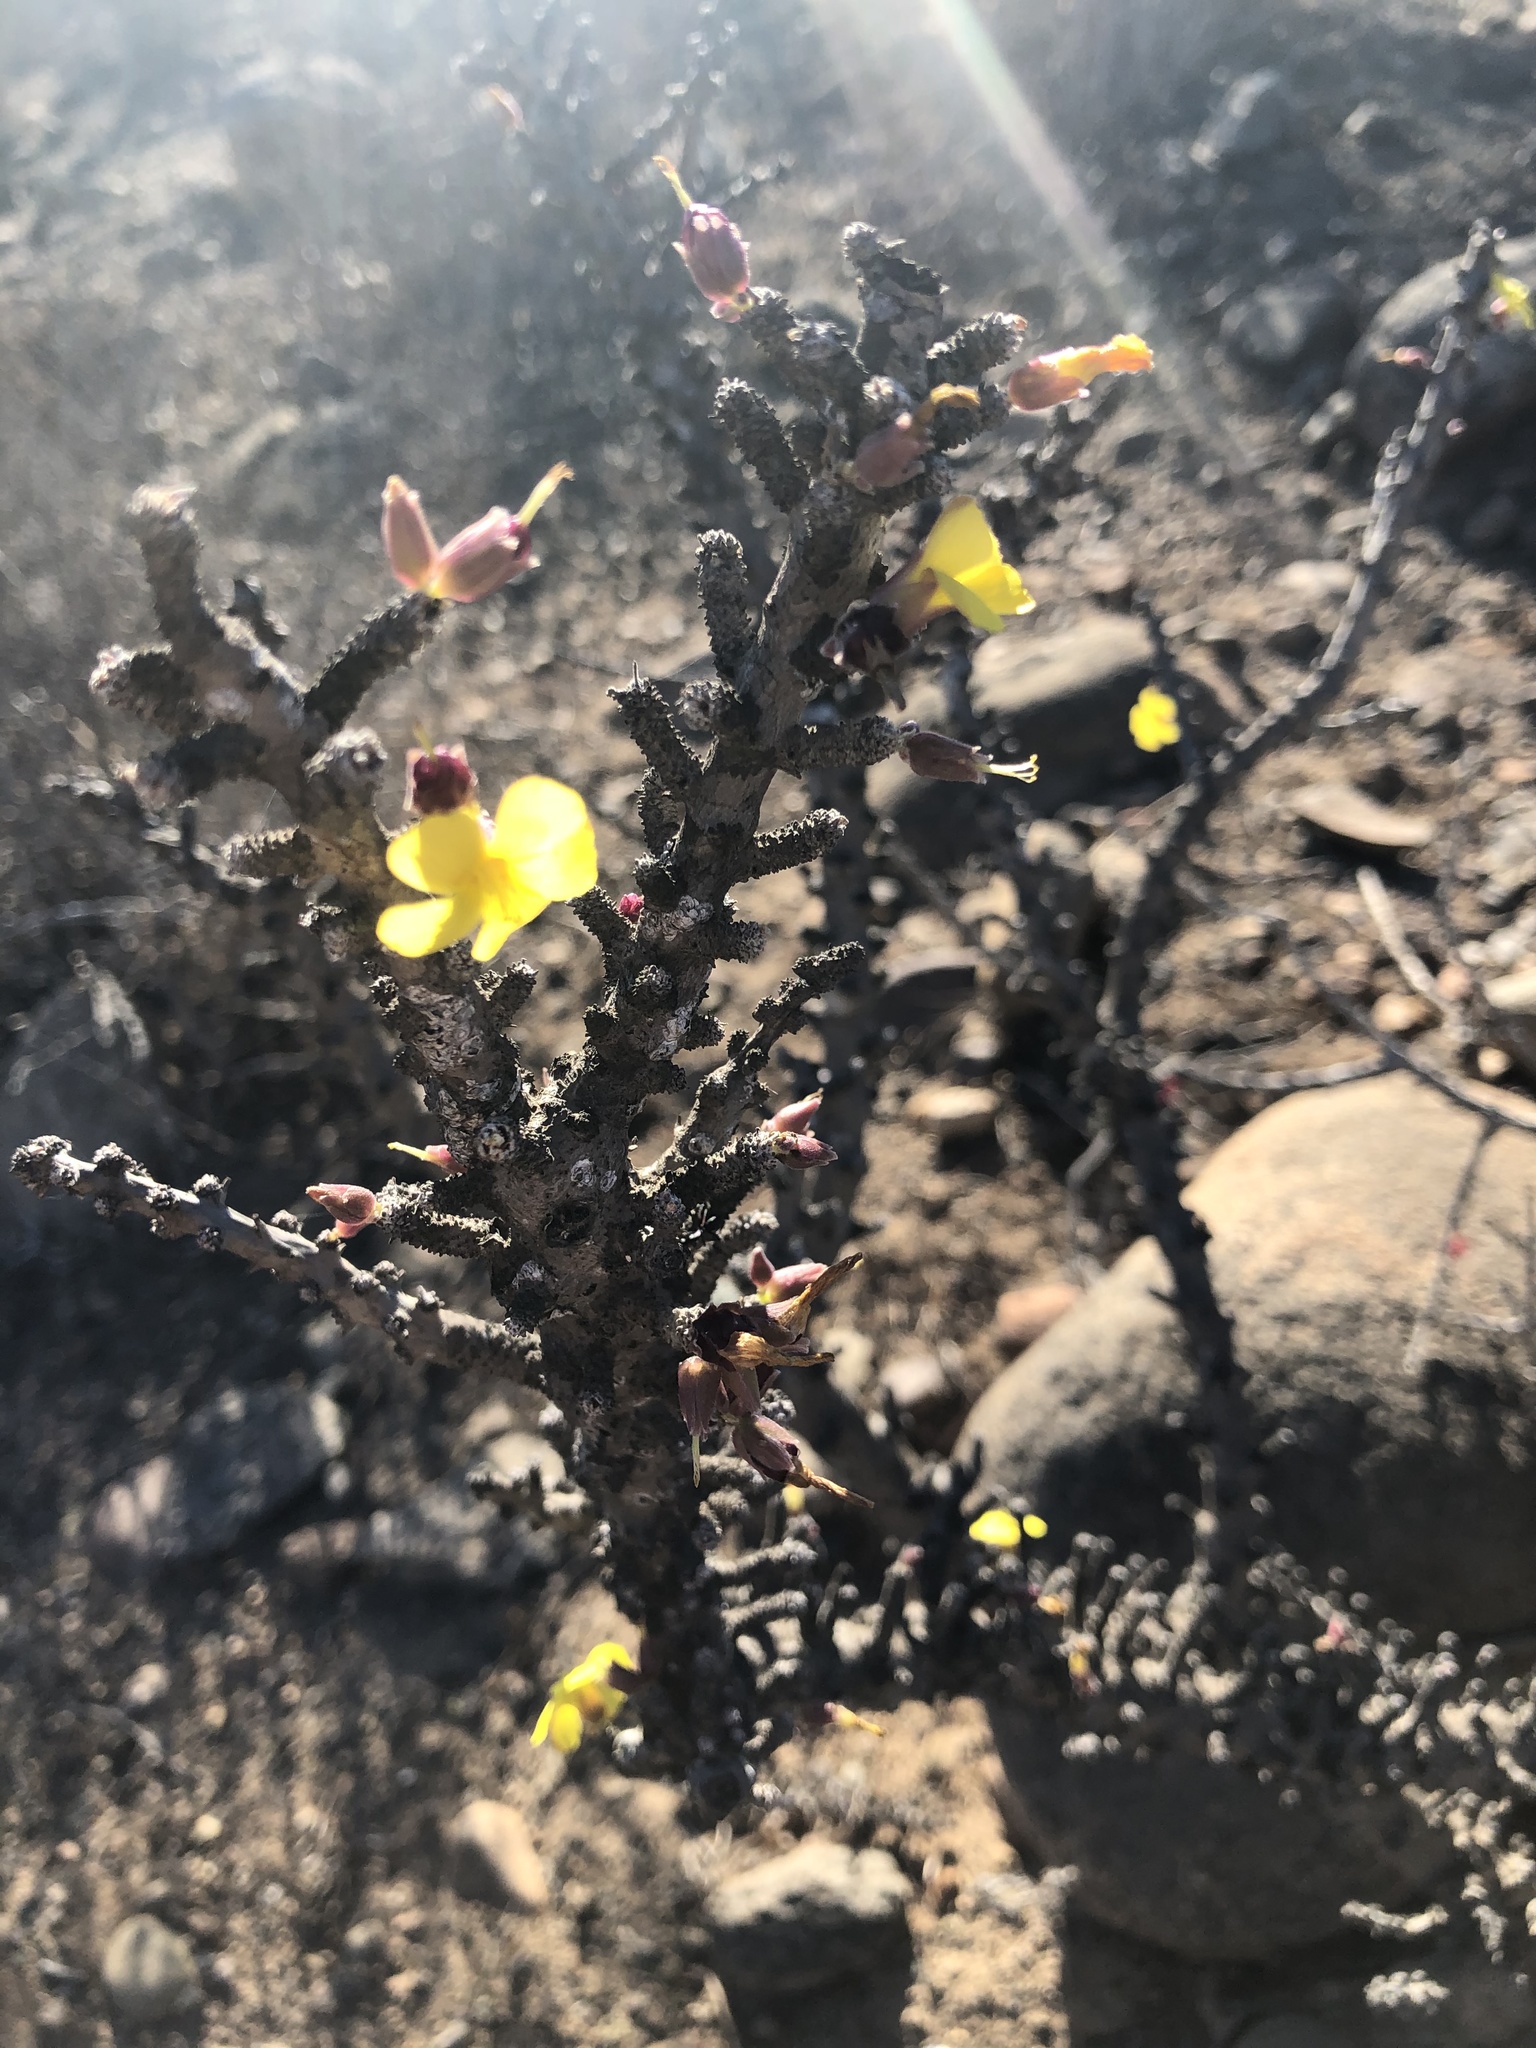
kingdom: Plantae
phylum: Tracheophyta
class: Magnoliopsida
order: Oxalidales
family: Oxalidaceae
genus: Oxalis
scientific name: Oxalis gigantea
